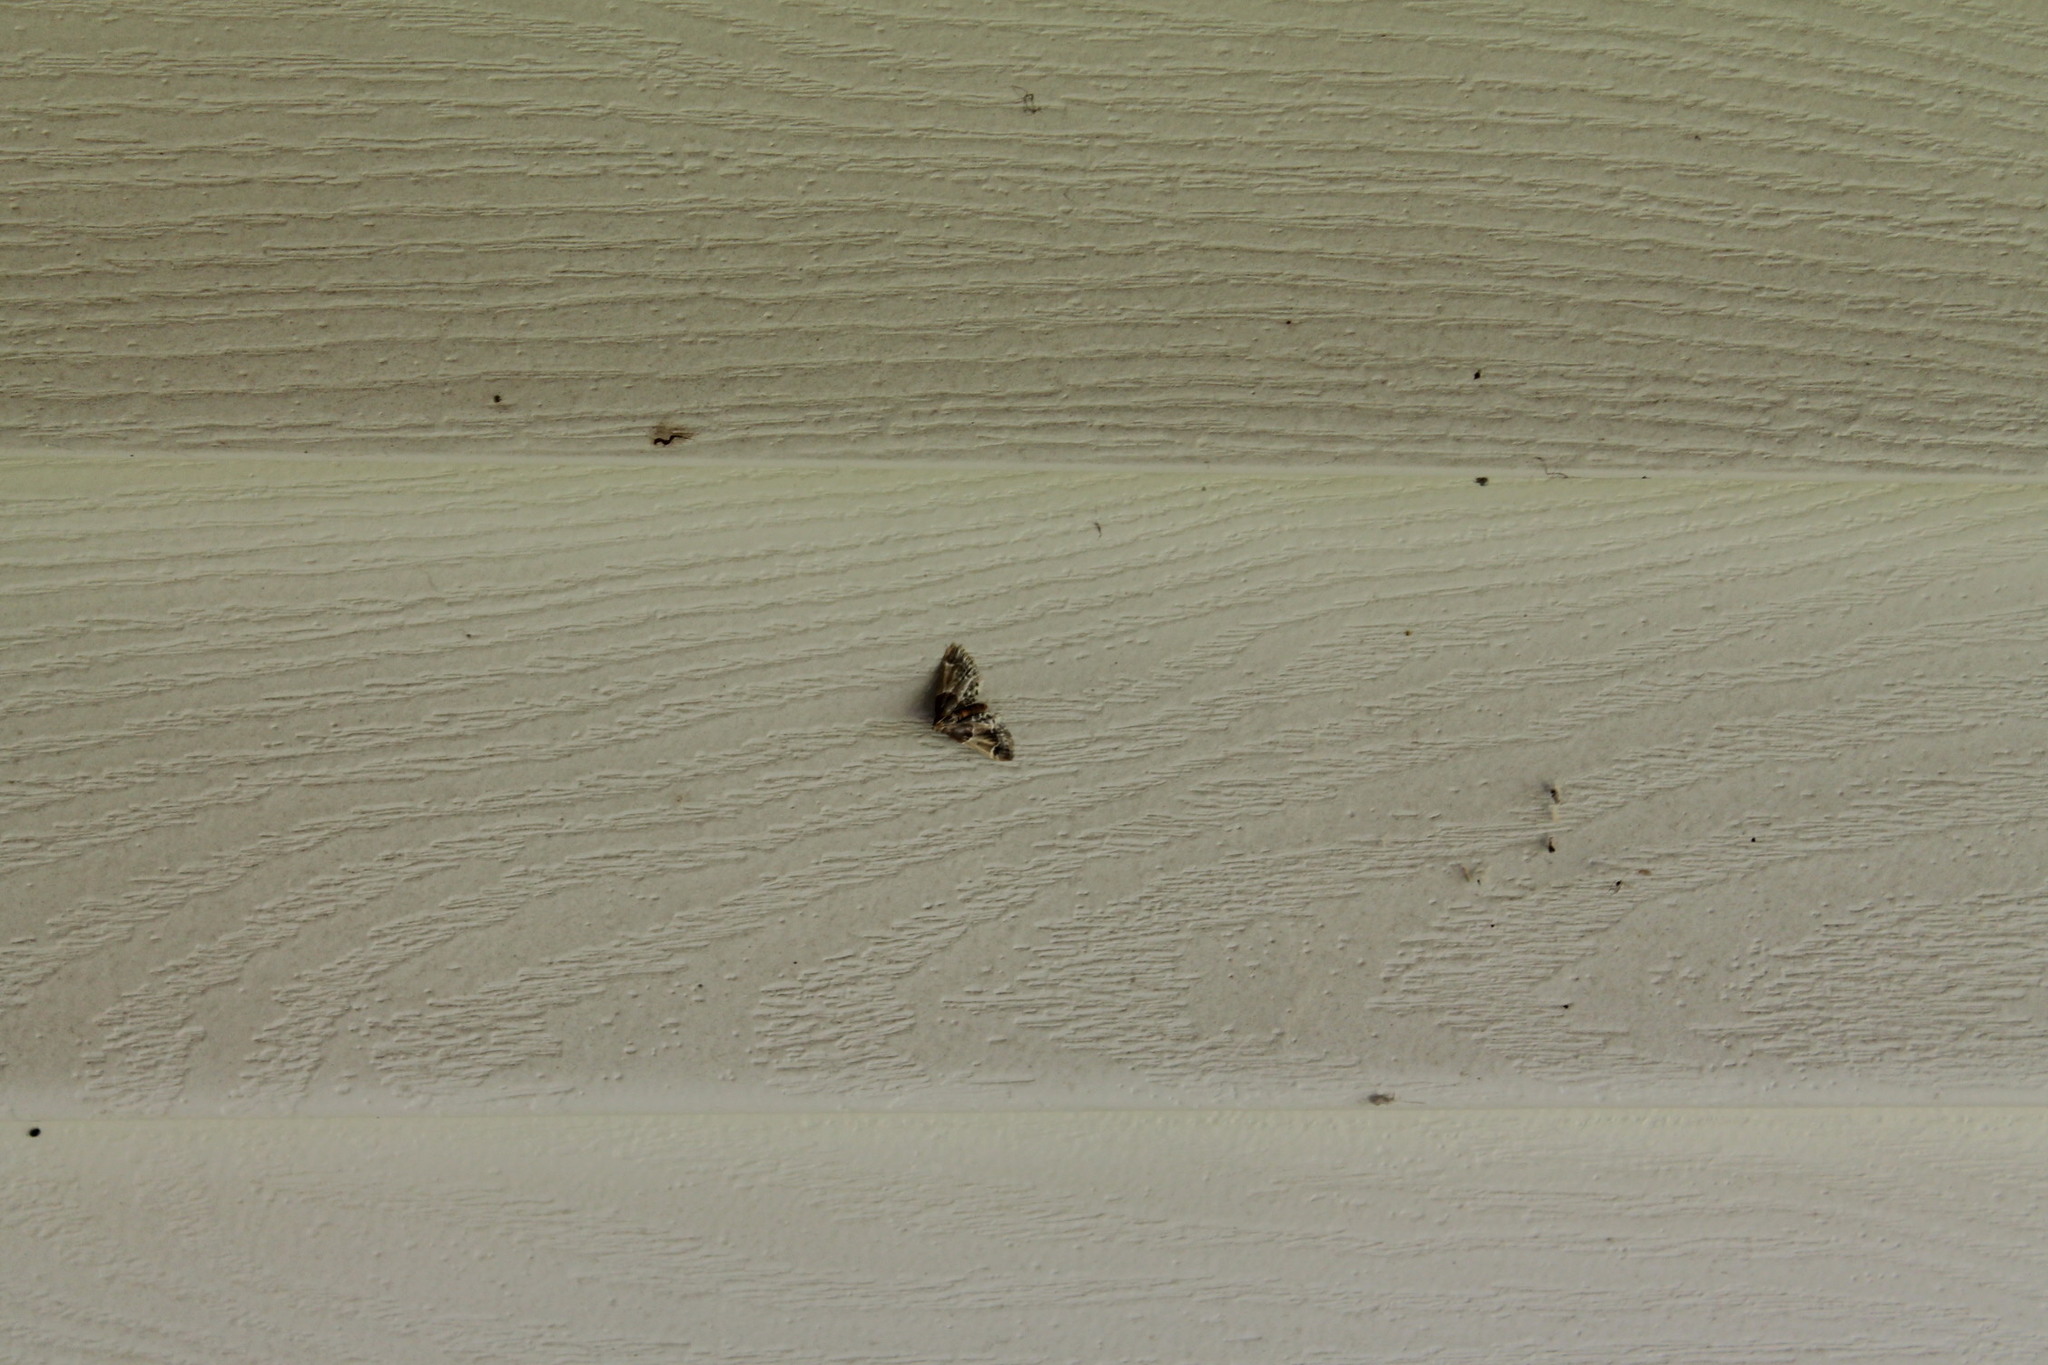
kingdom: Animalia
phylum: Arthropoda
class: Insecta
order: Lepidoptera
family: Pyralidae
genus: Pyralis
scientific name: Pyralis farinalis
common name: Meal moth
